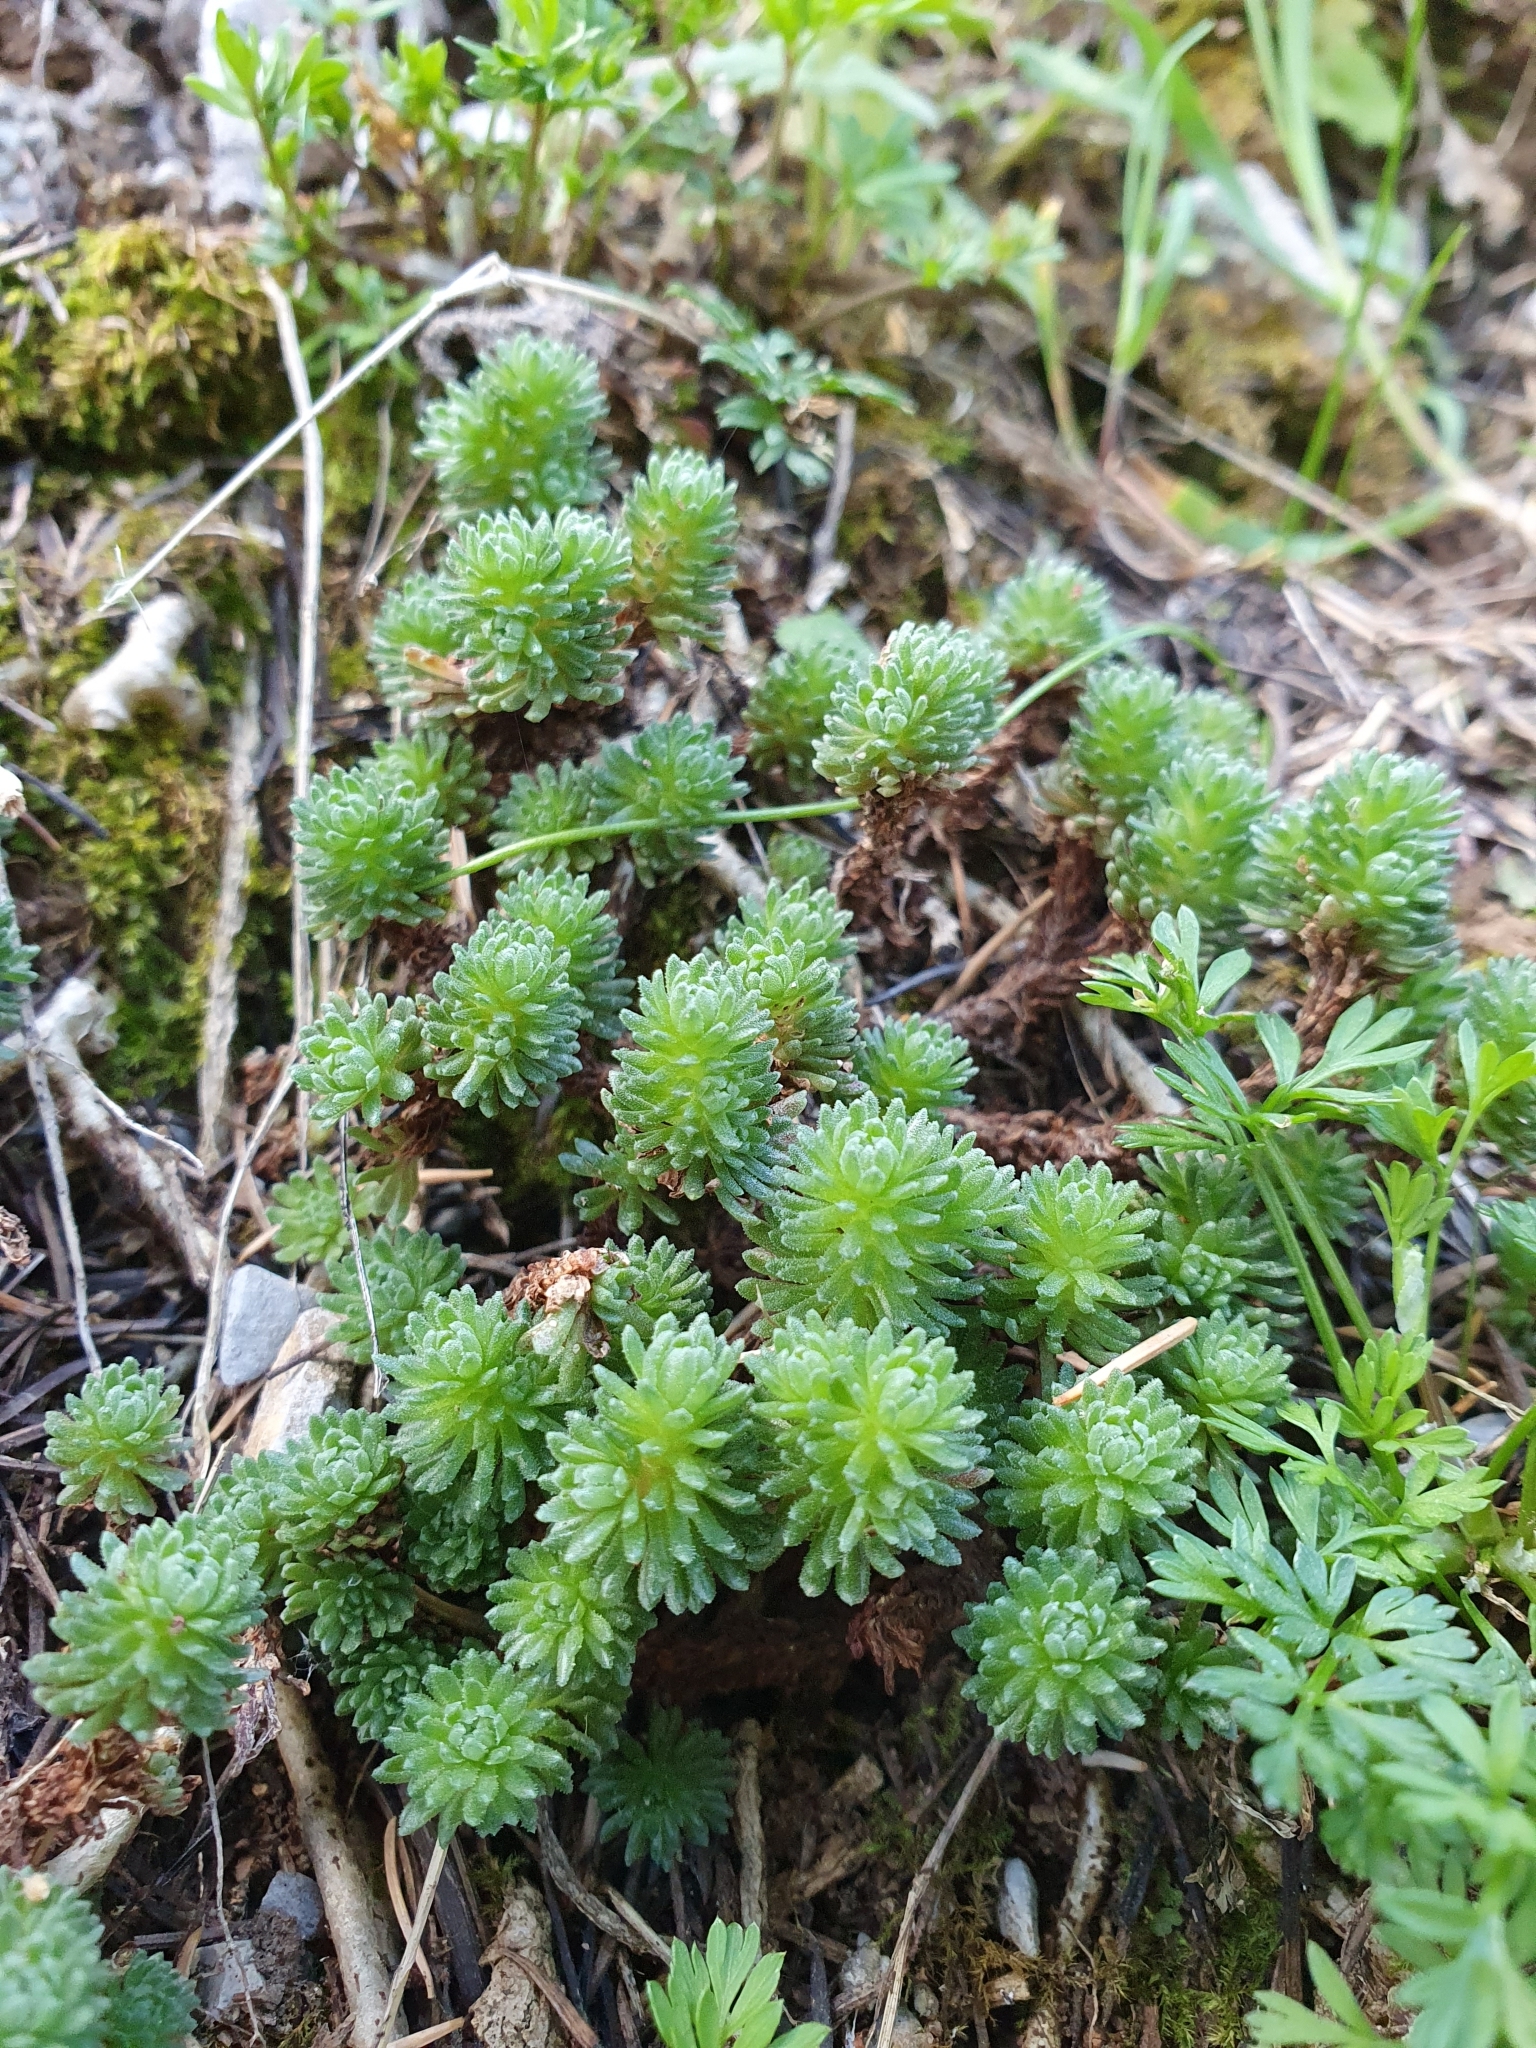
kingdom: Plantae
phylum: Tracheophyta
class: Magnoliopsida
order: Saxifragales
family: Crassulaceae
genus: Sedum
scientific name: Sedum multiceps
